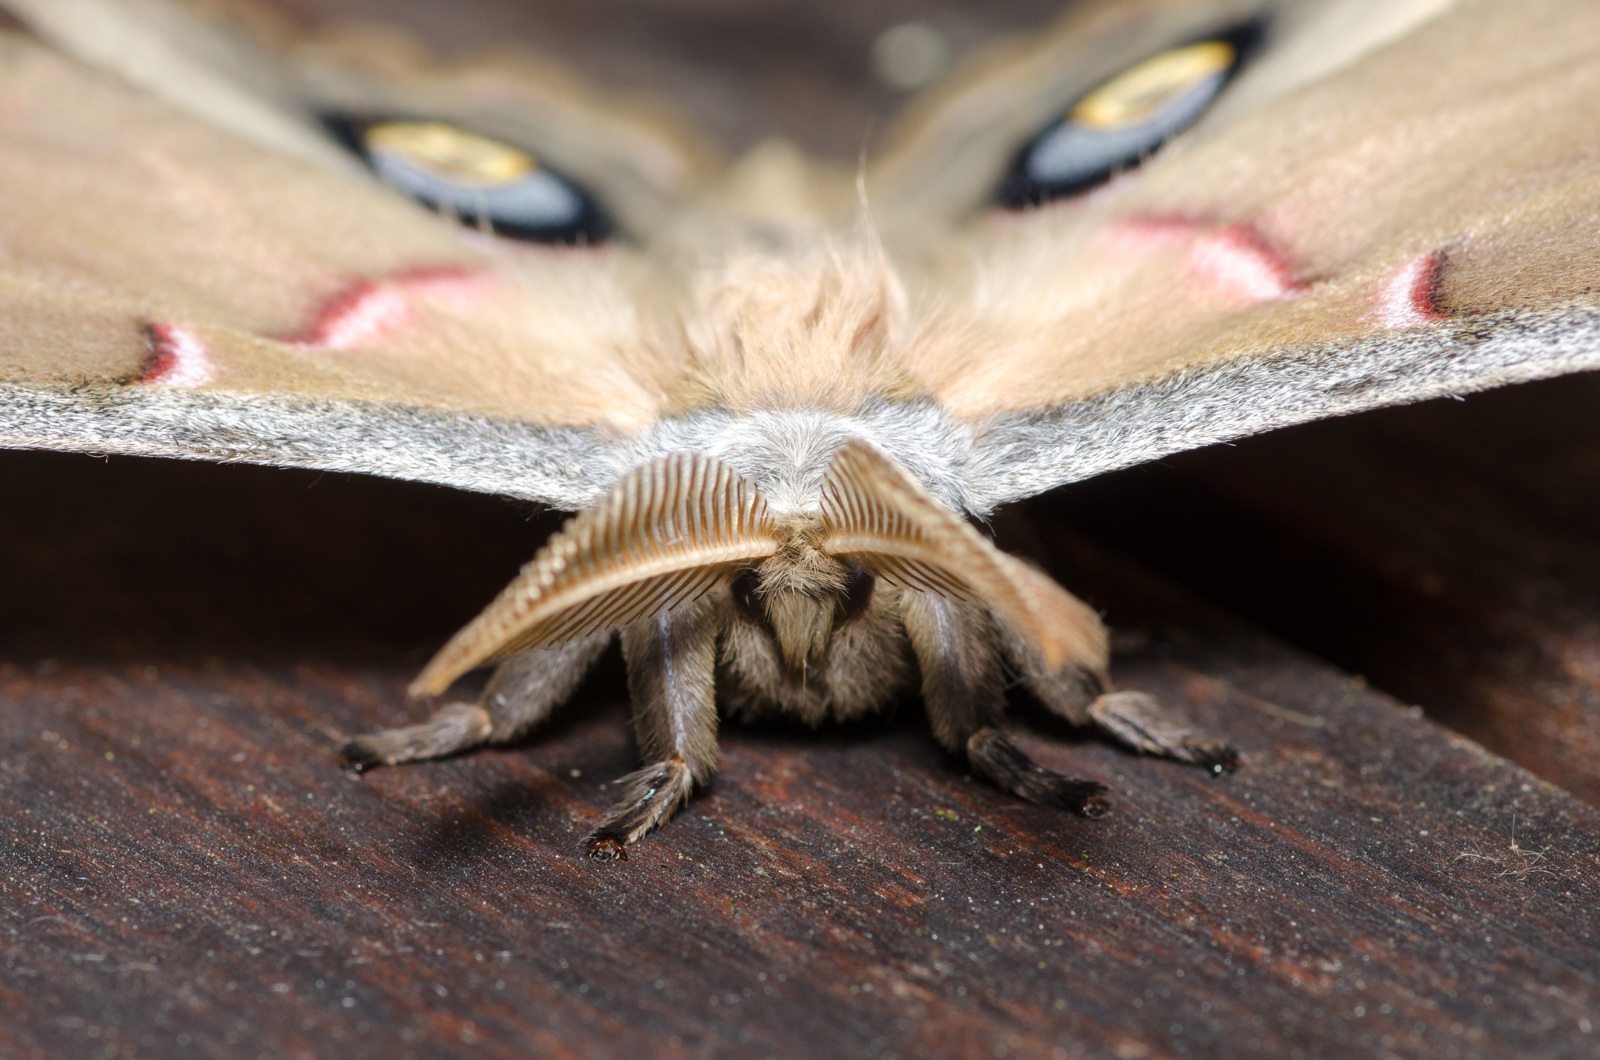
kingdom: Animalia
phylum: Arthropoda
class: Insecta
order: Lepidoptera
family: Saturniidae
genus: Antheraea
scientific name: Antheraea polyphemus
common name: Polyphemus moth
